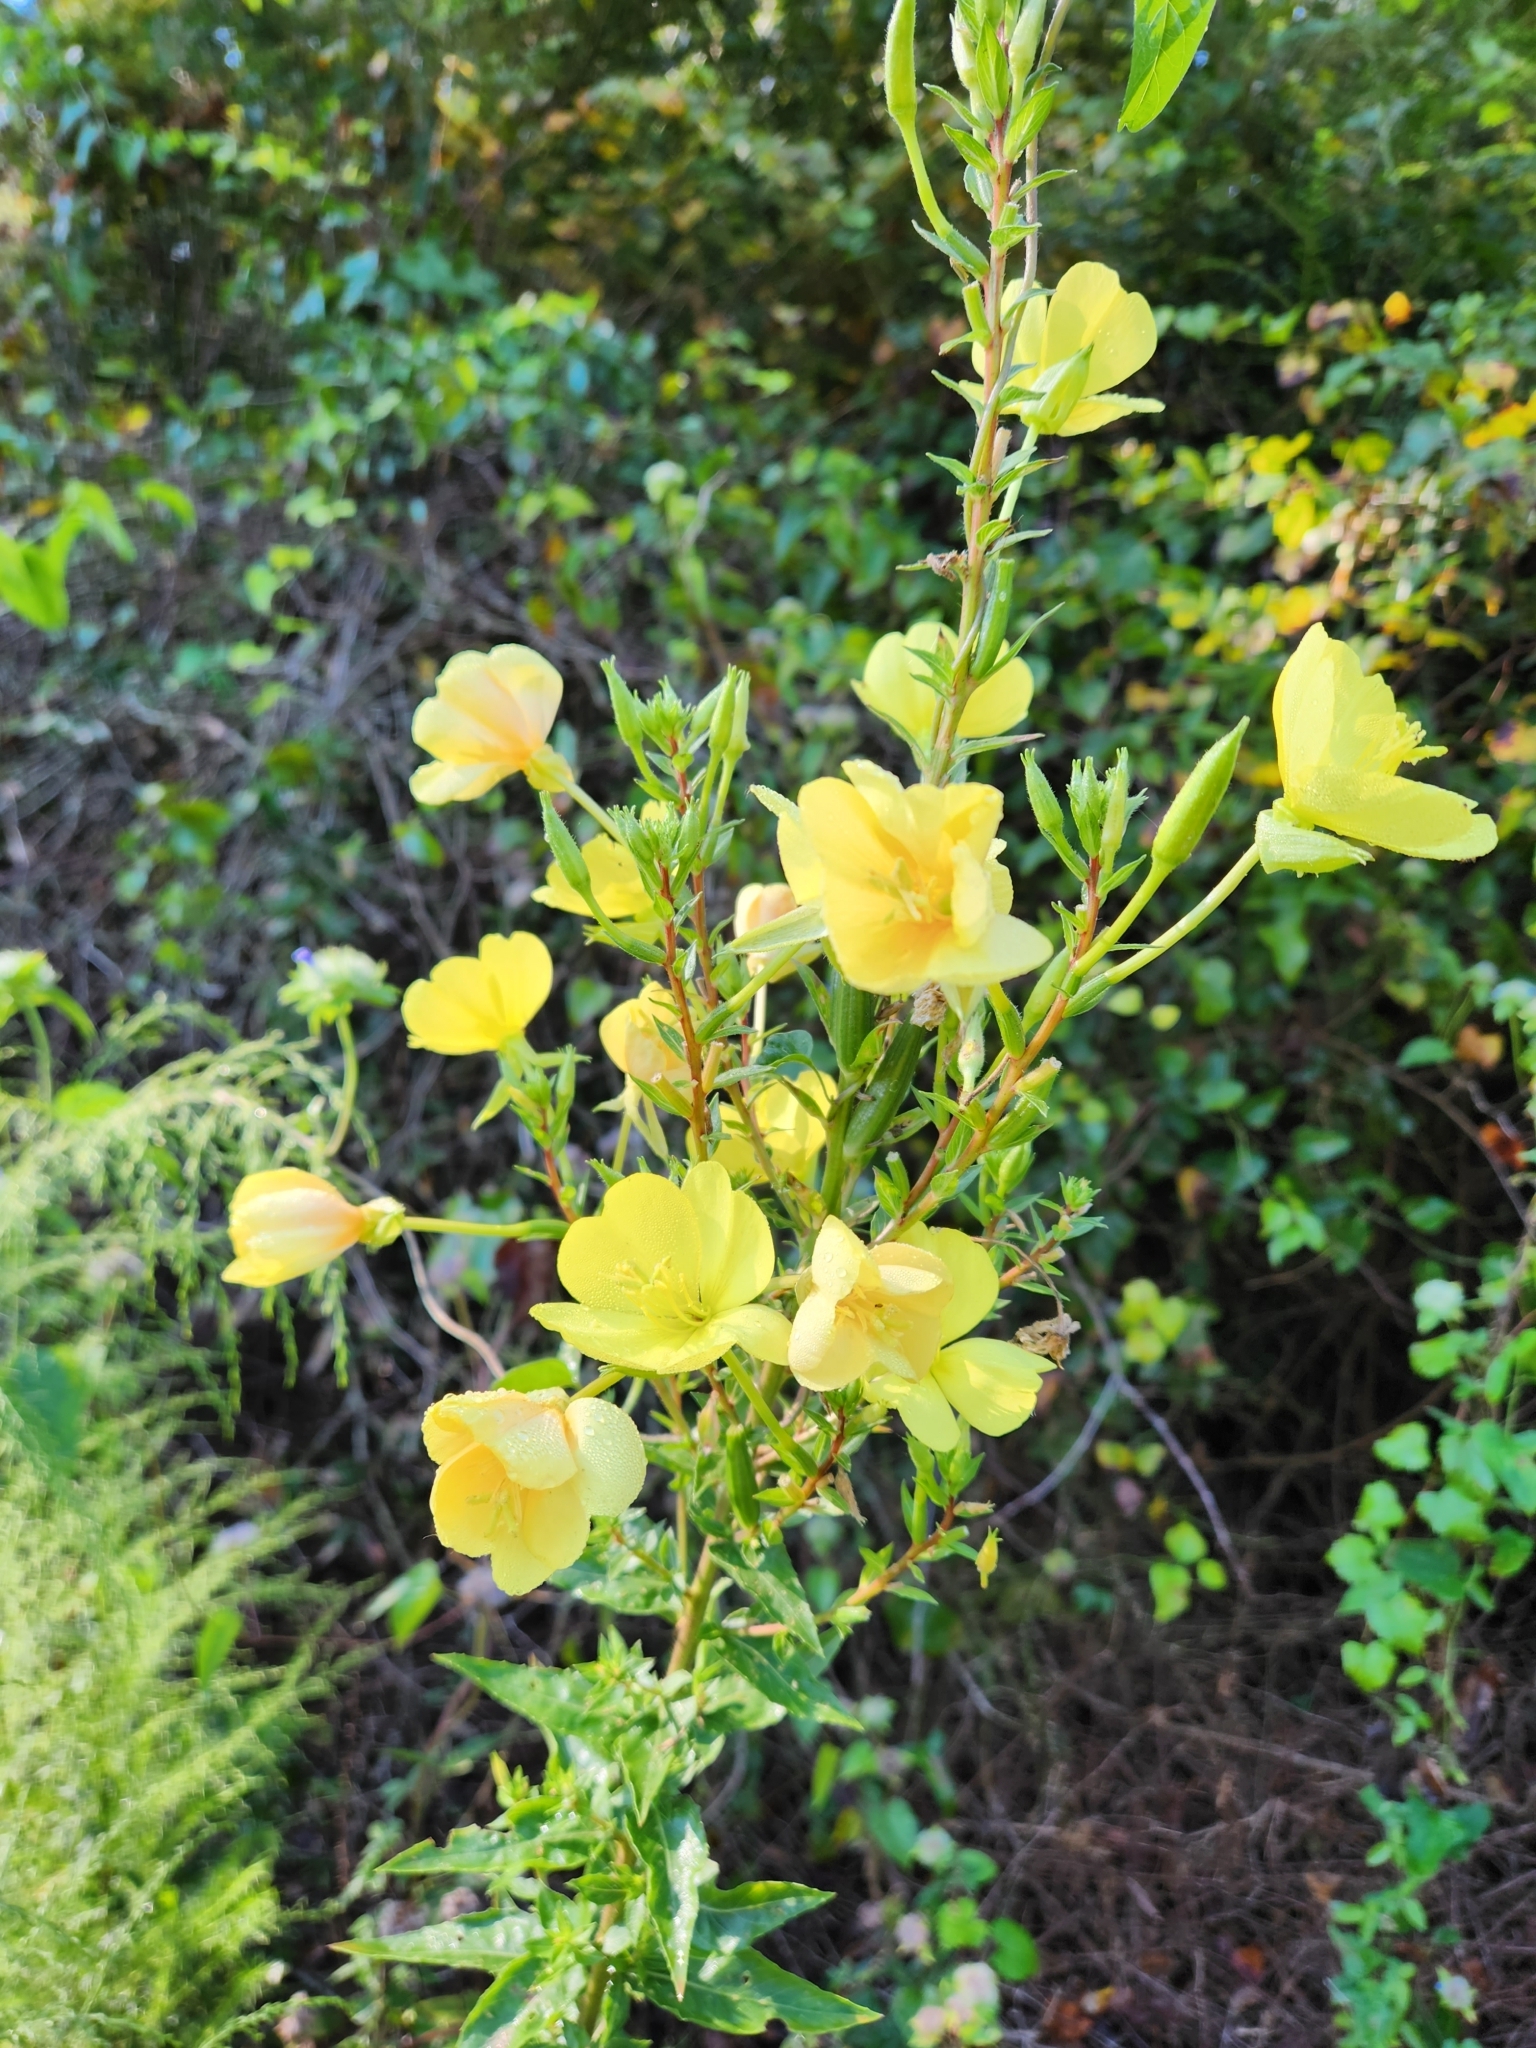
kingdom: Plantae
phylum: Tracheophyta
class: Magnoliopsida
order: Myrtales
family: Onagraceae
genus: Oenothera
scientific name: Oenothera biennis
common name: Common evening-primrose
